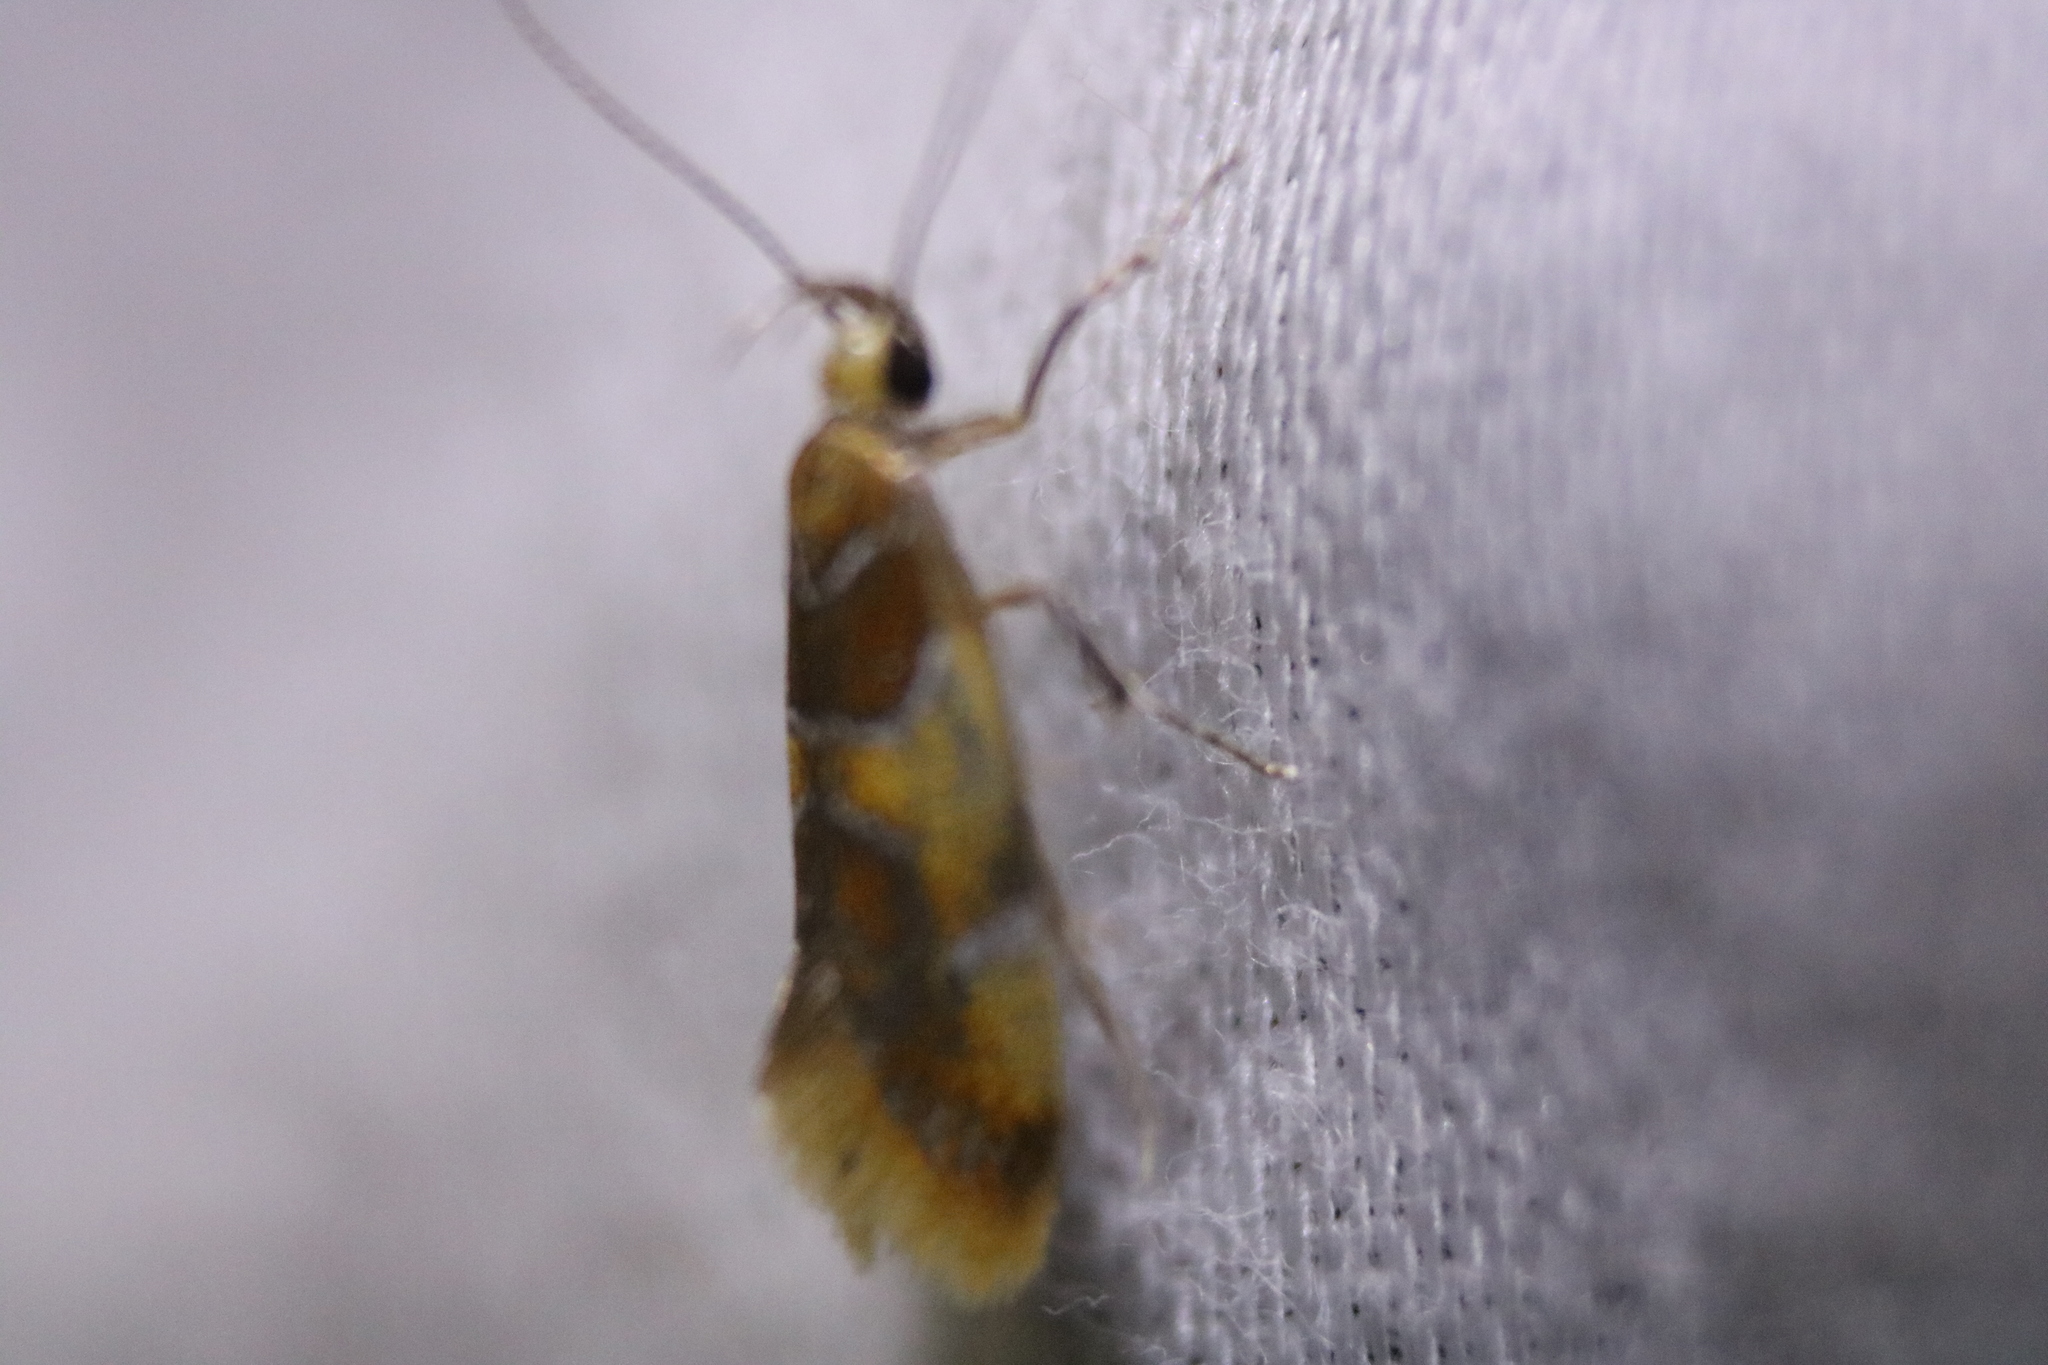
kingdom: Animalia
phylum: Arthropoda
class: Insecta
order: Lepidoptera
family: Oecophoridae
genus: Callima
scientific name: Callima argenticinctella
